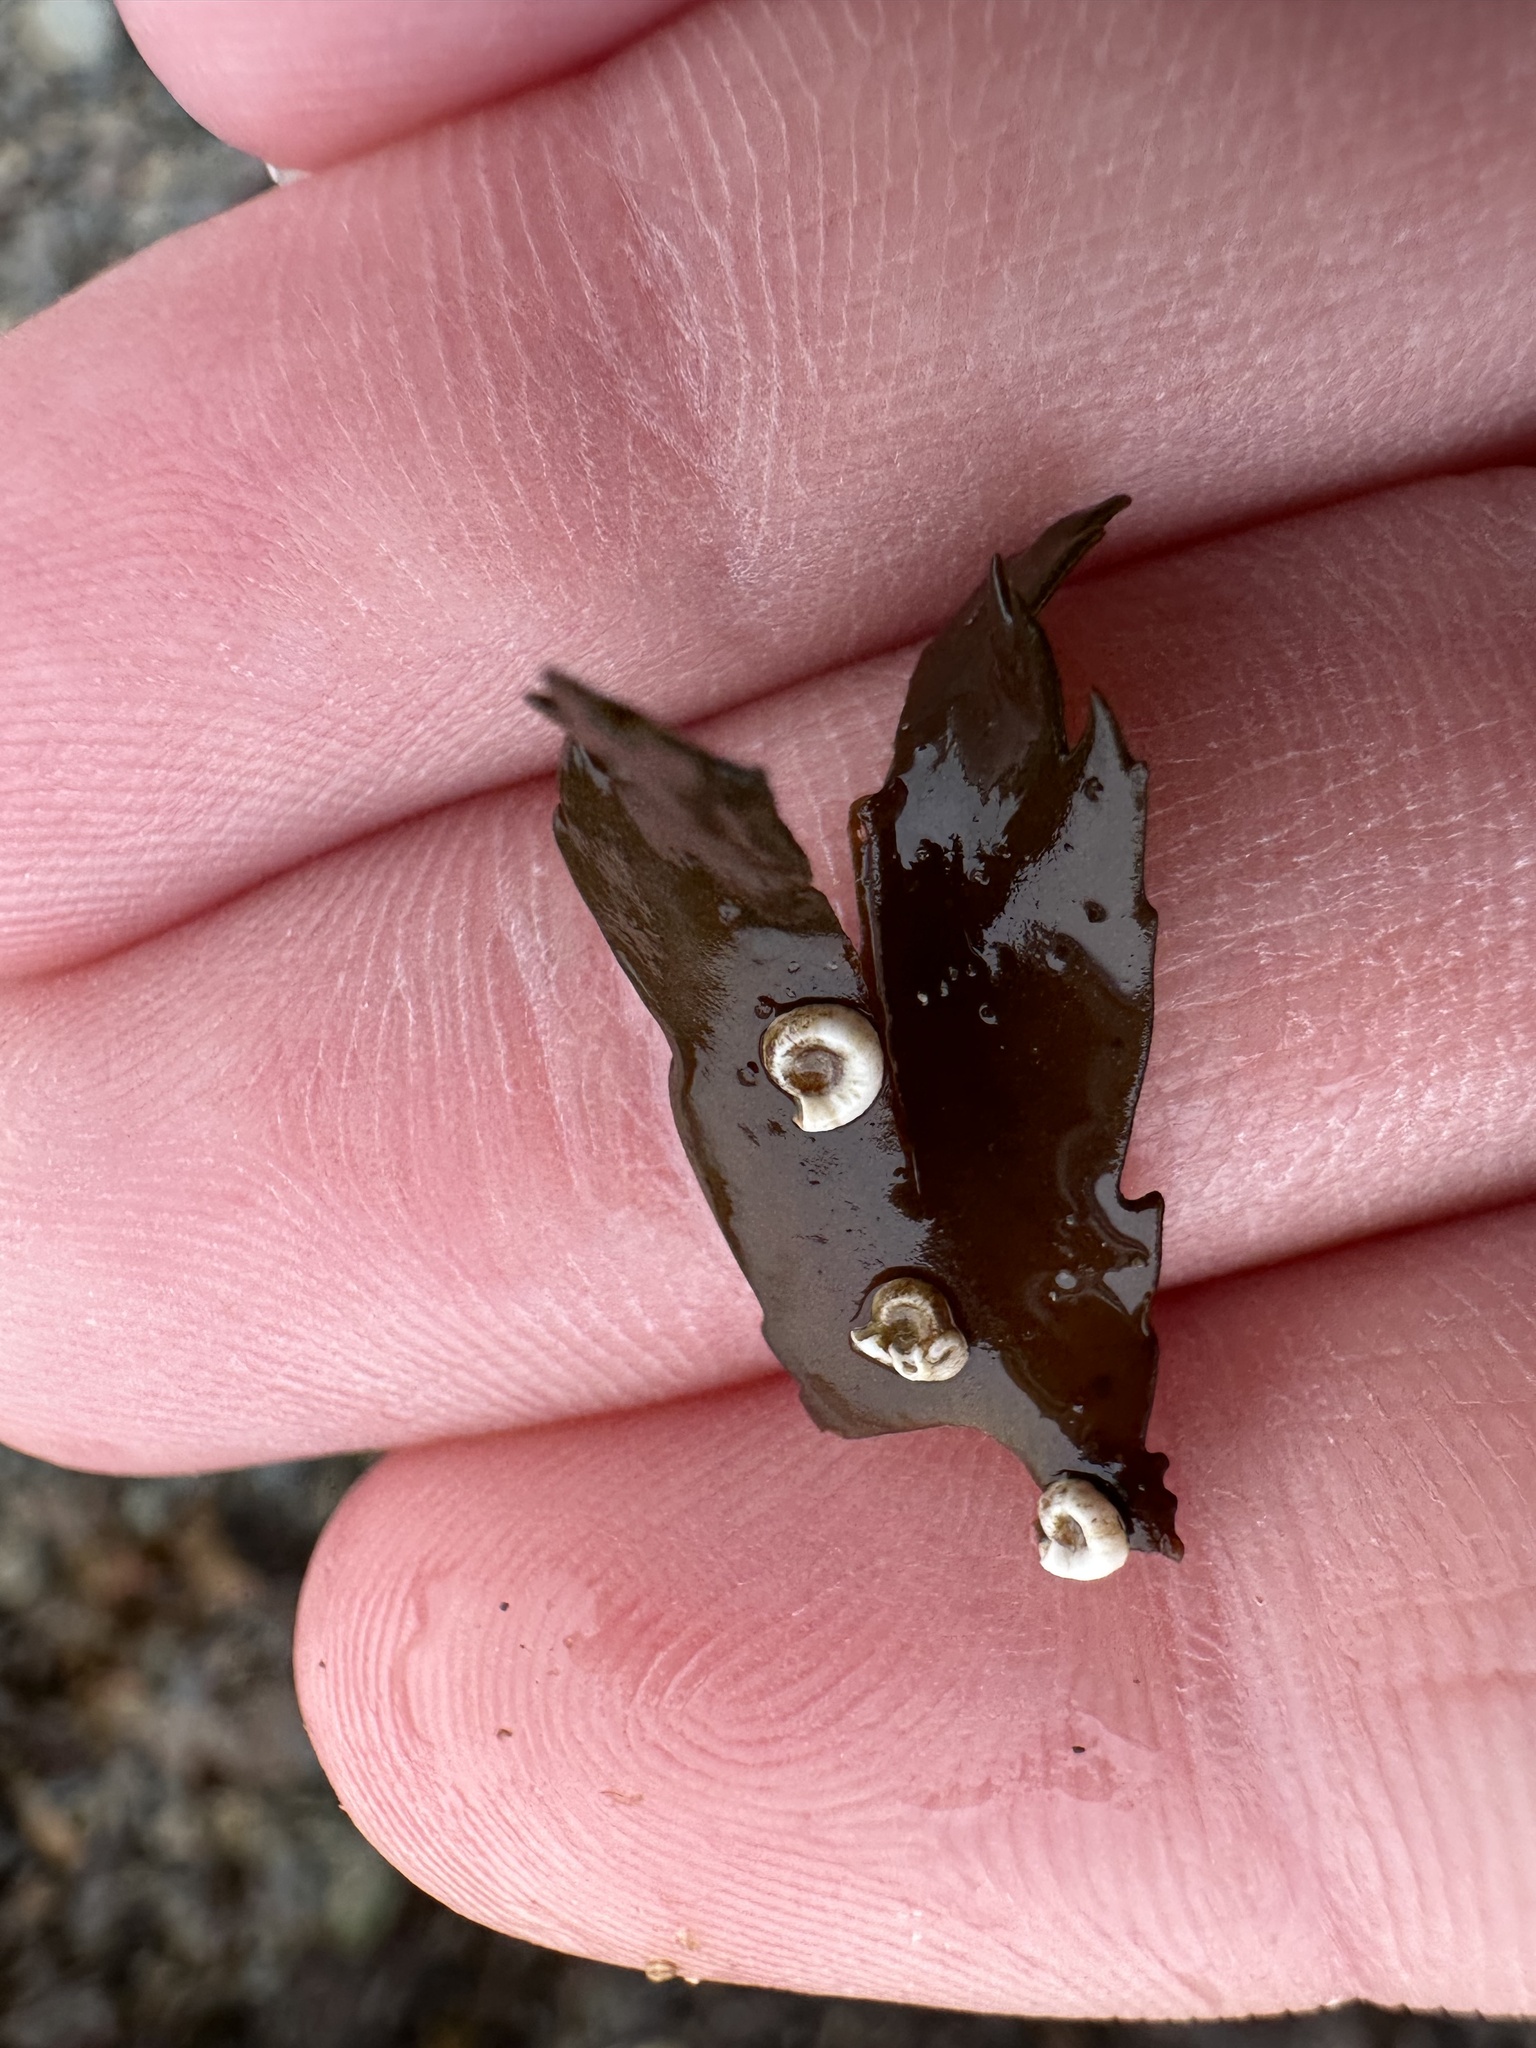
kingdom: Animalia
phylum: Annelida
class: Polychaeta
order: Sabellida
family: Serpulidae
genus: Spirorbis
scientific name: Spirorbis spirorbis
